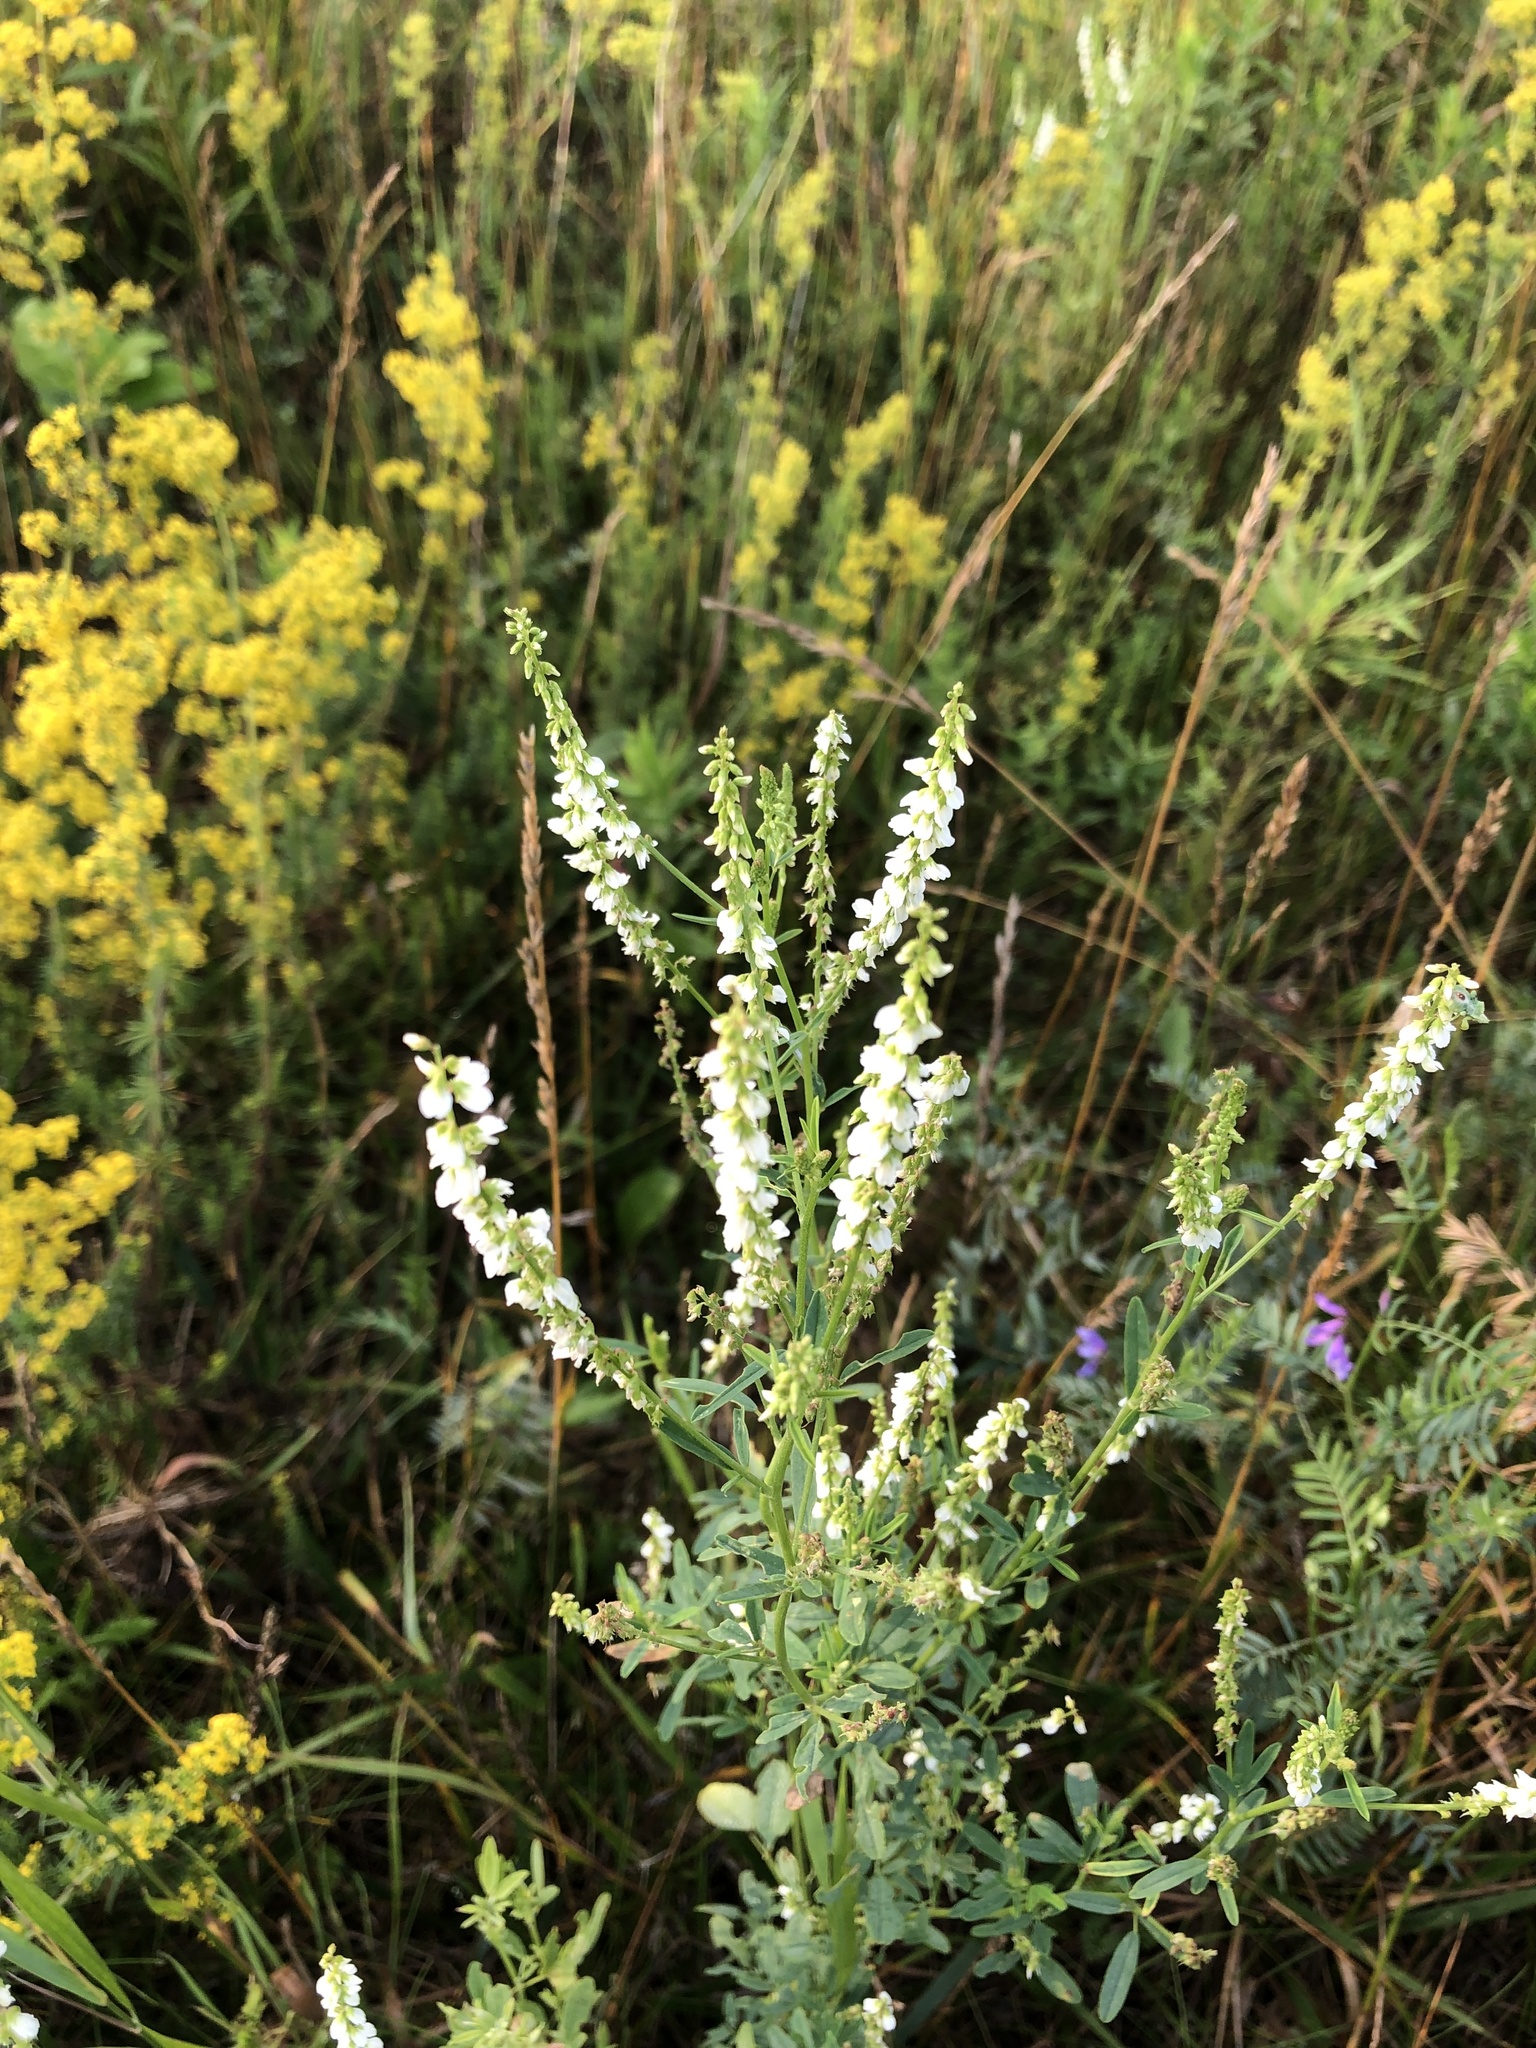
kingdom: Plantae
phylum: Tracheophyta
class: Magnoliopsida
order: Fabales
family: Fabaceae
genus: Melilotus
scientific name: Melilotus albus
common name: White melilot
